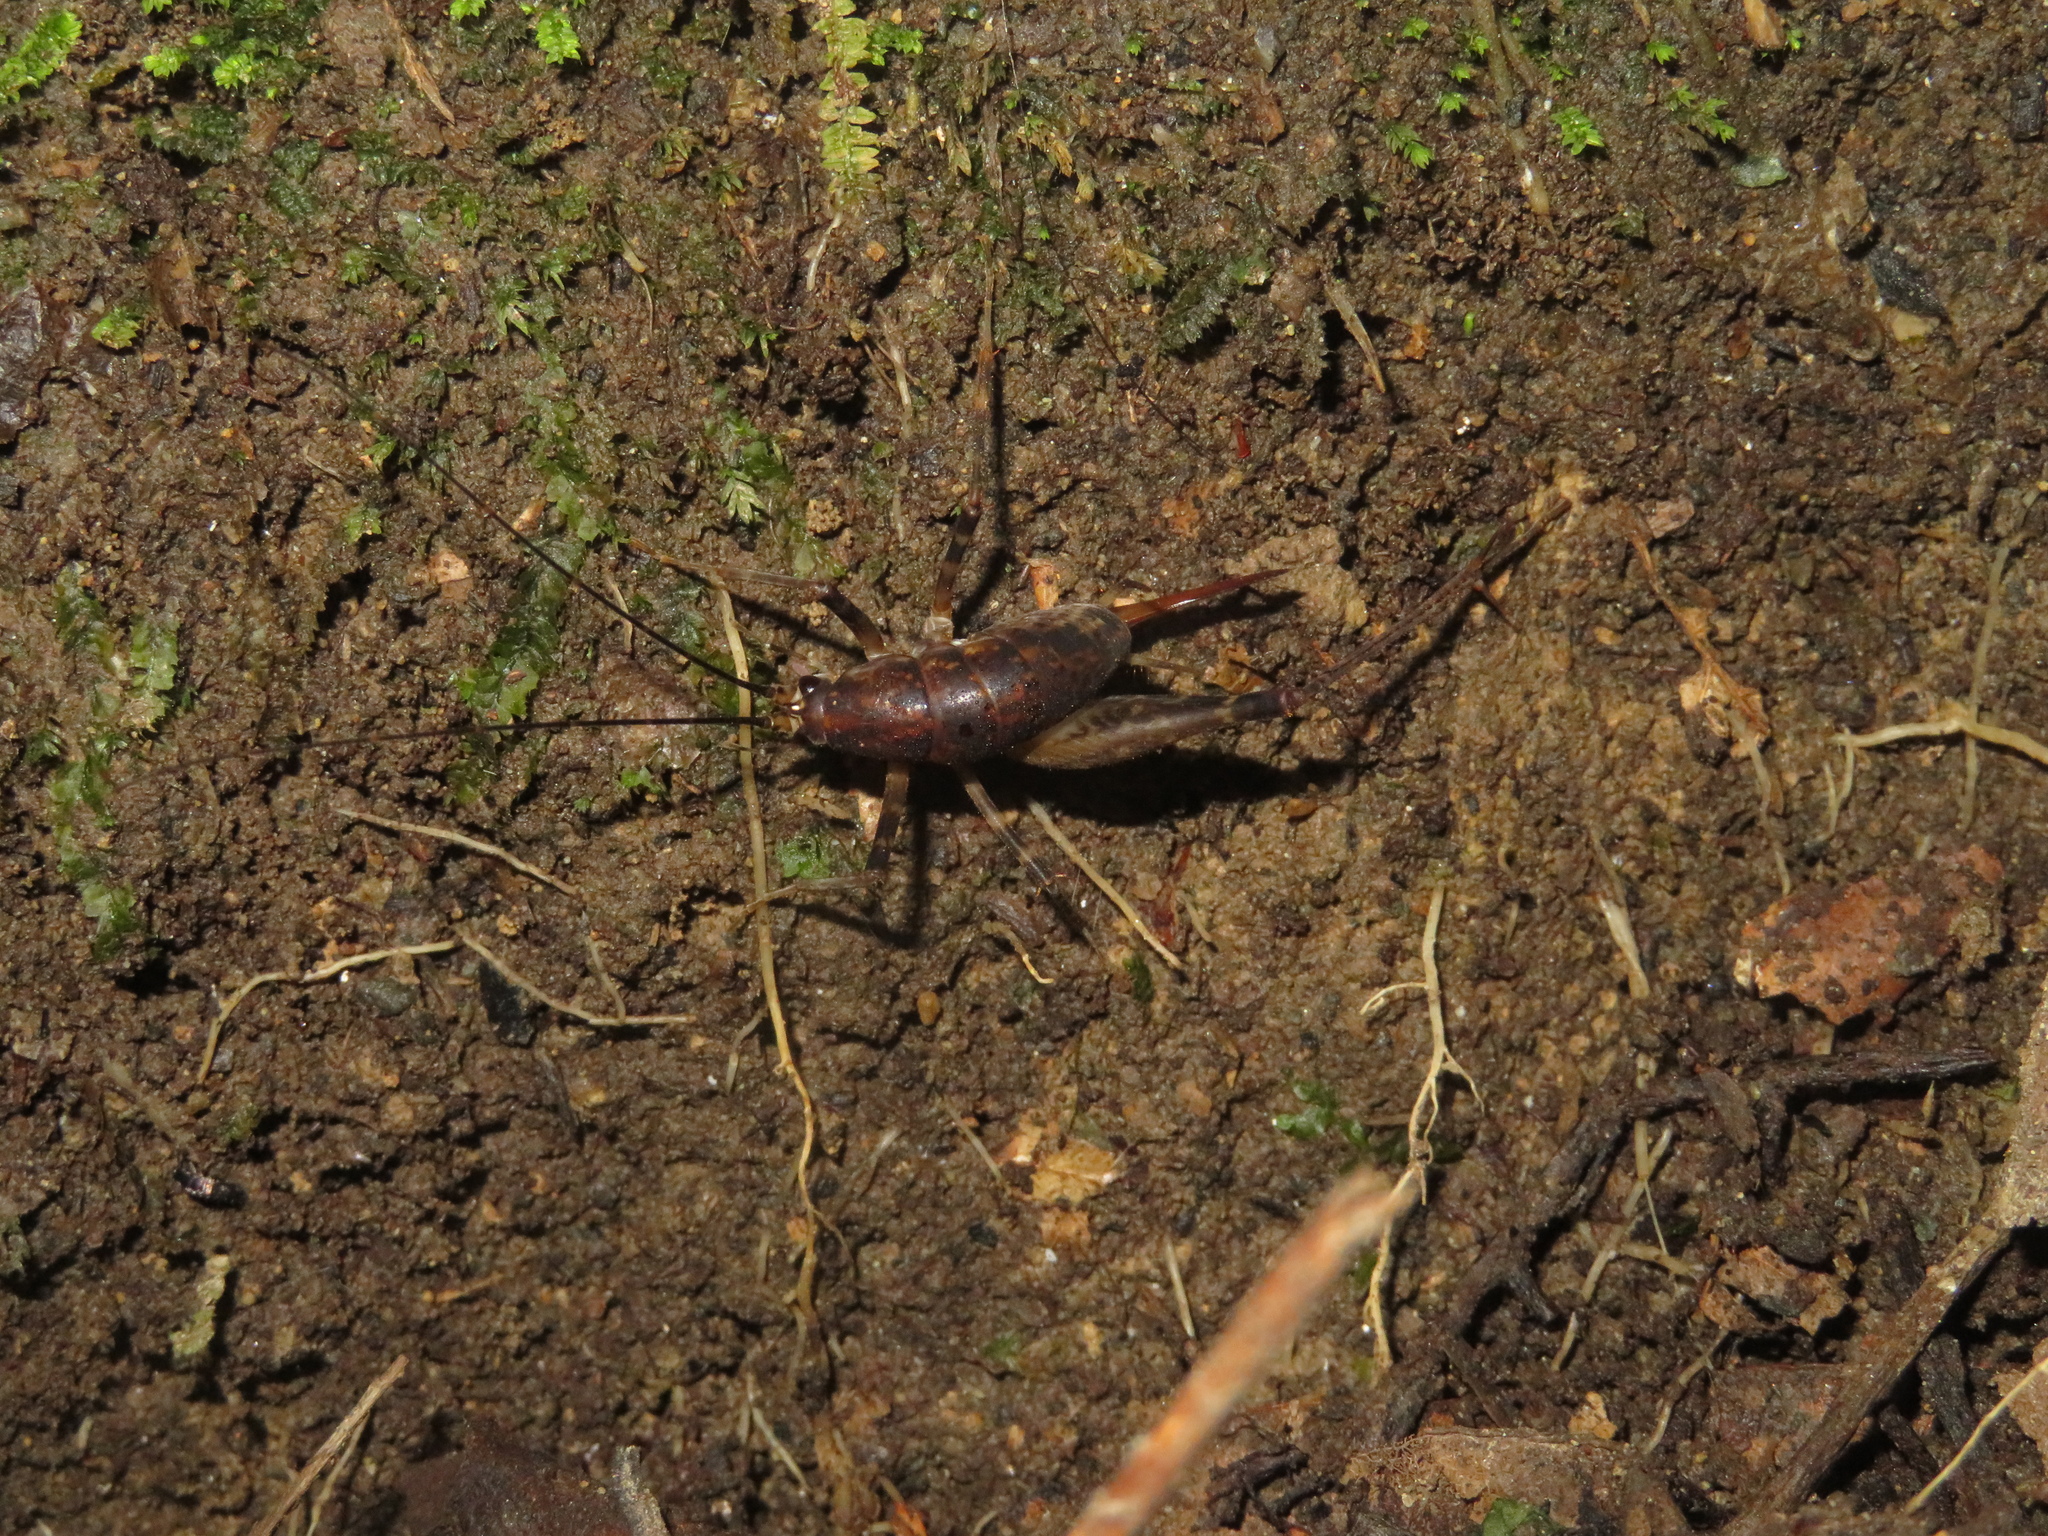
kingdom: Animalia
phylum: Arthropoda
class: Insecta
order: Orthoptera
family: Rhaphidophoridae
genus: Miotopus
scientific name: Miotopus diversus
